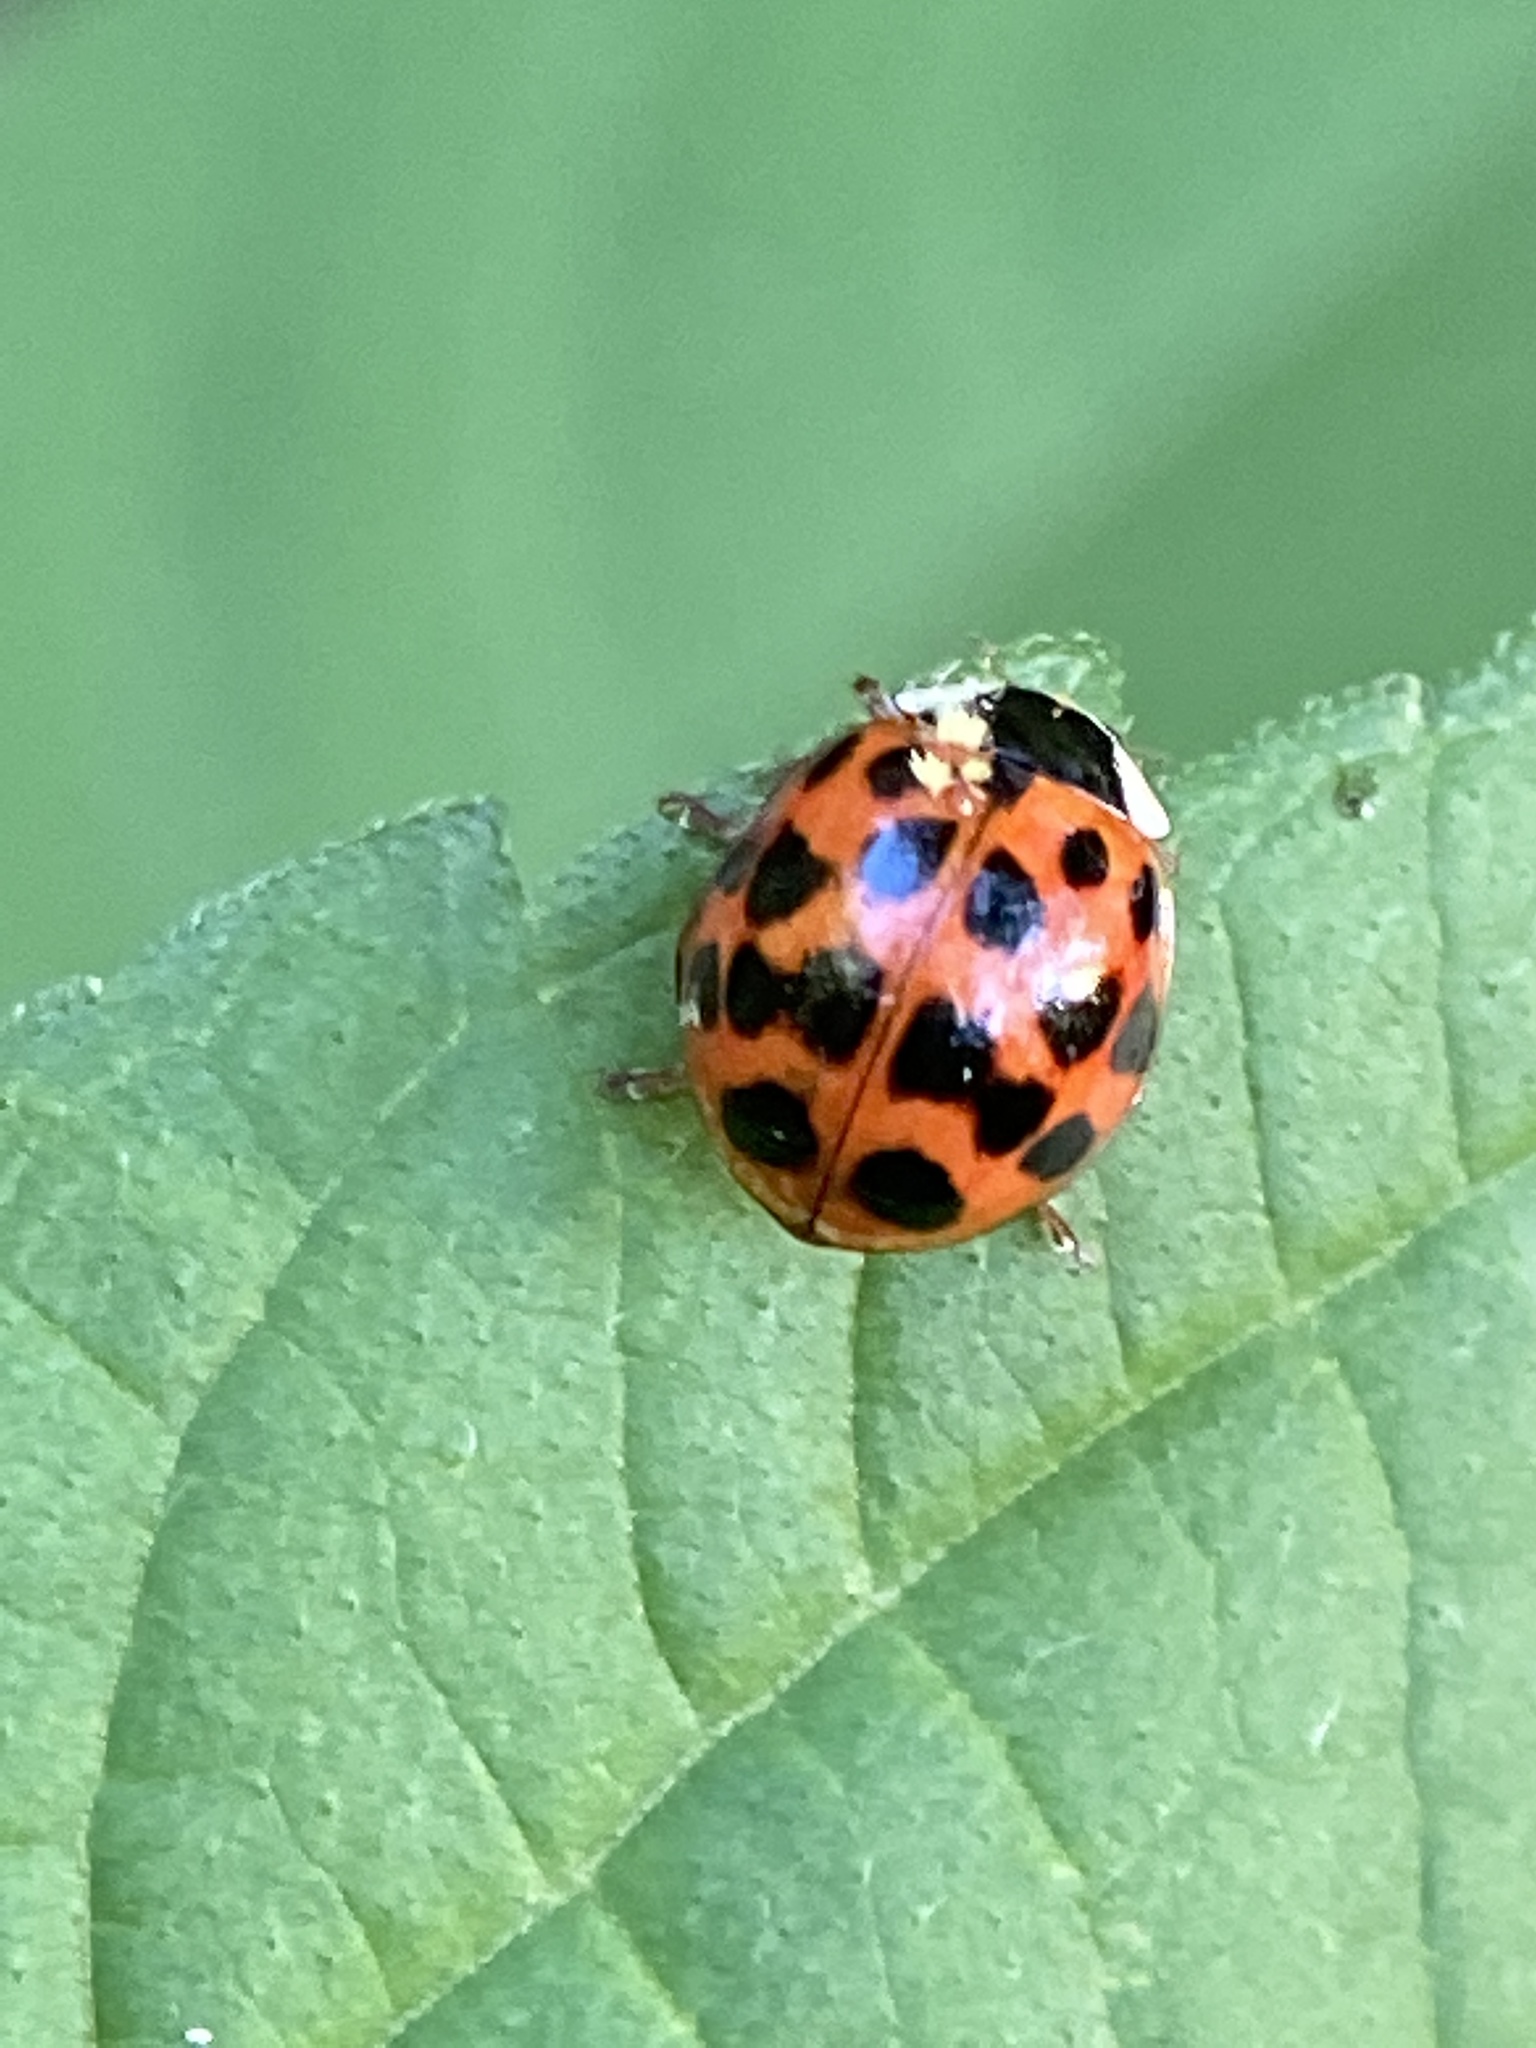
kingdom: Animalia
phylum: Arthropoda
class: Insecta
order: Coleoptera
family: Coccinellidae
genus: Harmonia
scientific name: Harmonia axyridis
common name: Harlequin ladybird
